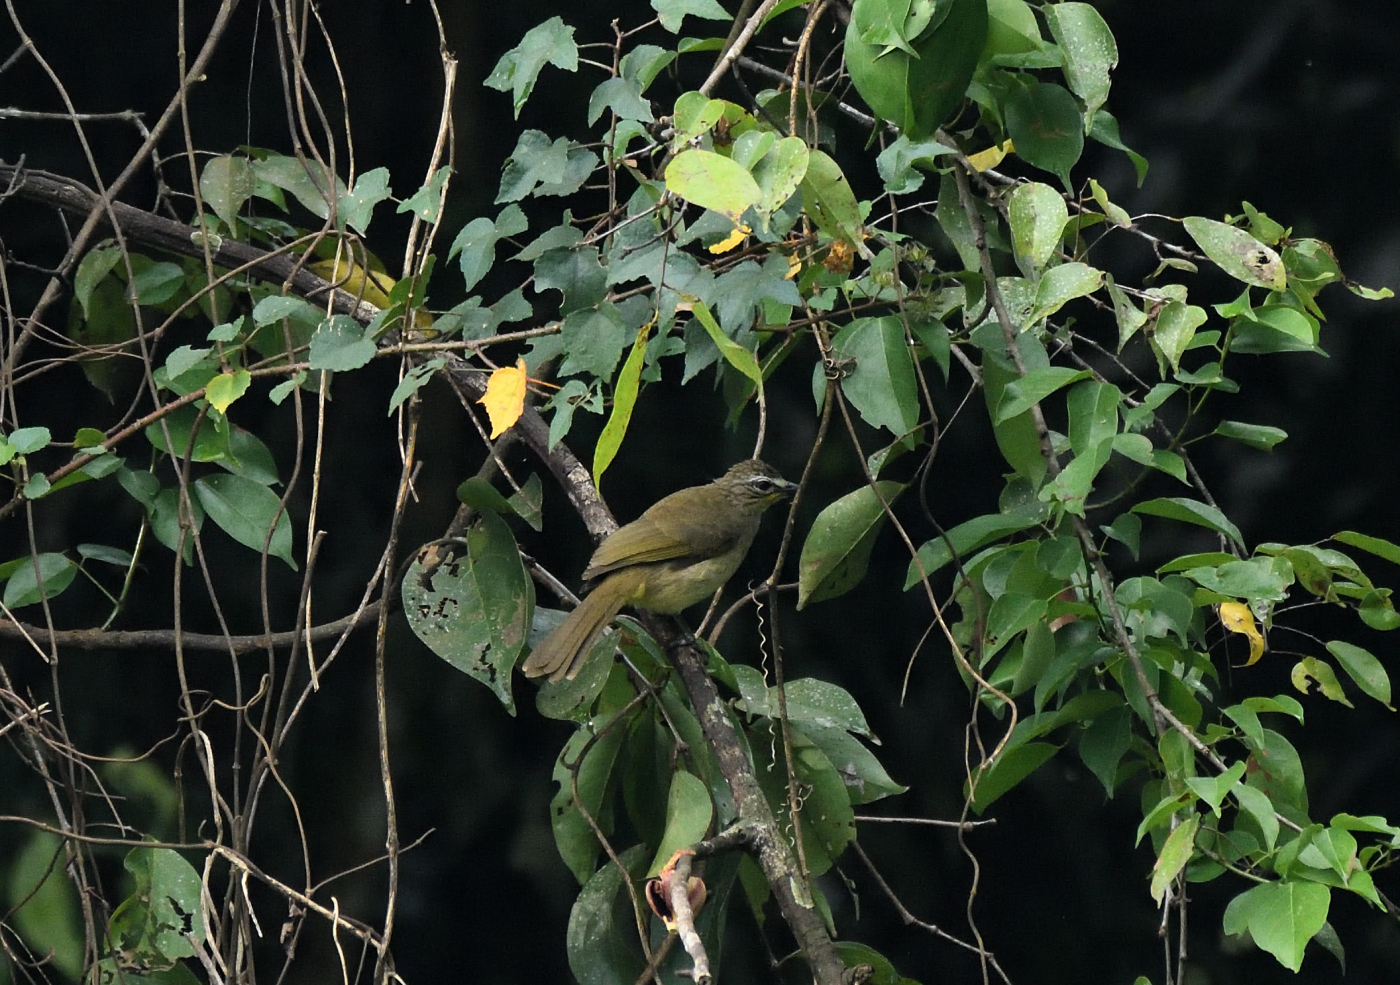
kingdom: Animalia
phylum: Chordata
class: Aves
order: Passeriformes
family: Pycnonotidae
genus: Pycnonotus
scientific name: Pycnonotus luteolus
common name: White-browed bulbul
